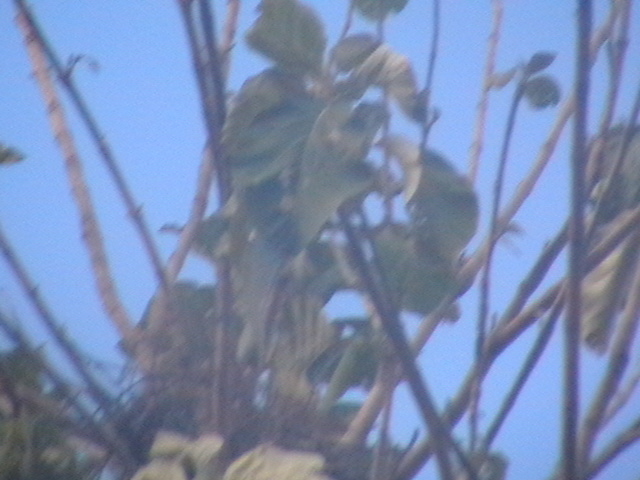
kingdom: Plantae
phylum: Tracheophyta
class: Magnoliopsida
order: Lamiales
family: Lamiaceae
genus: Tectona
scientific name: Tectona grandis
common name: Teak
